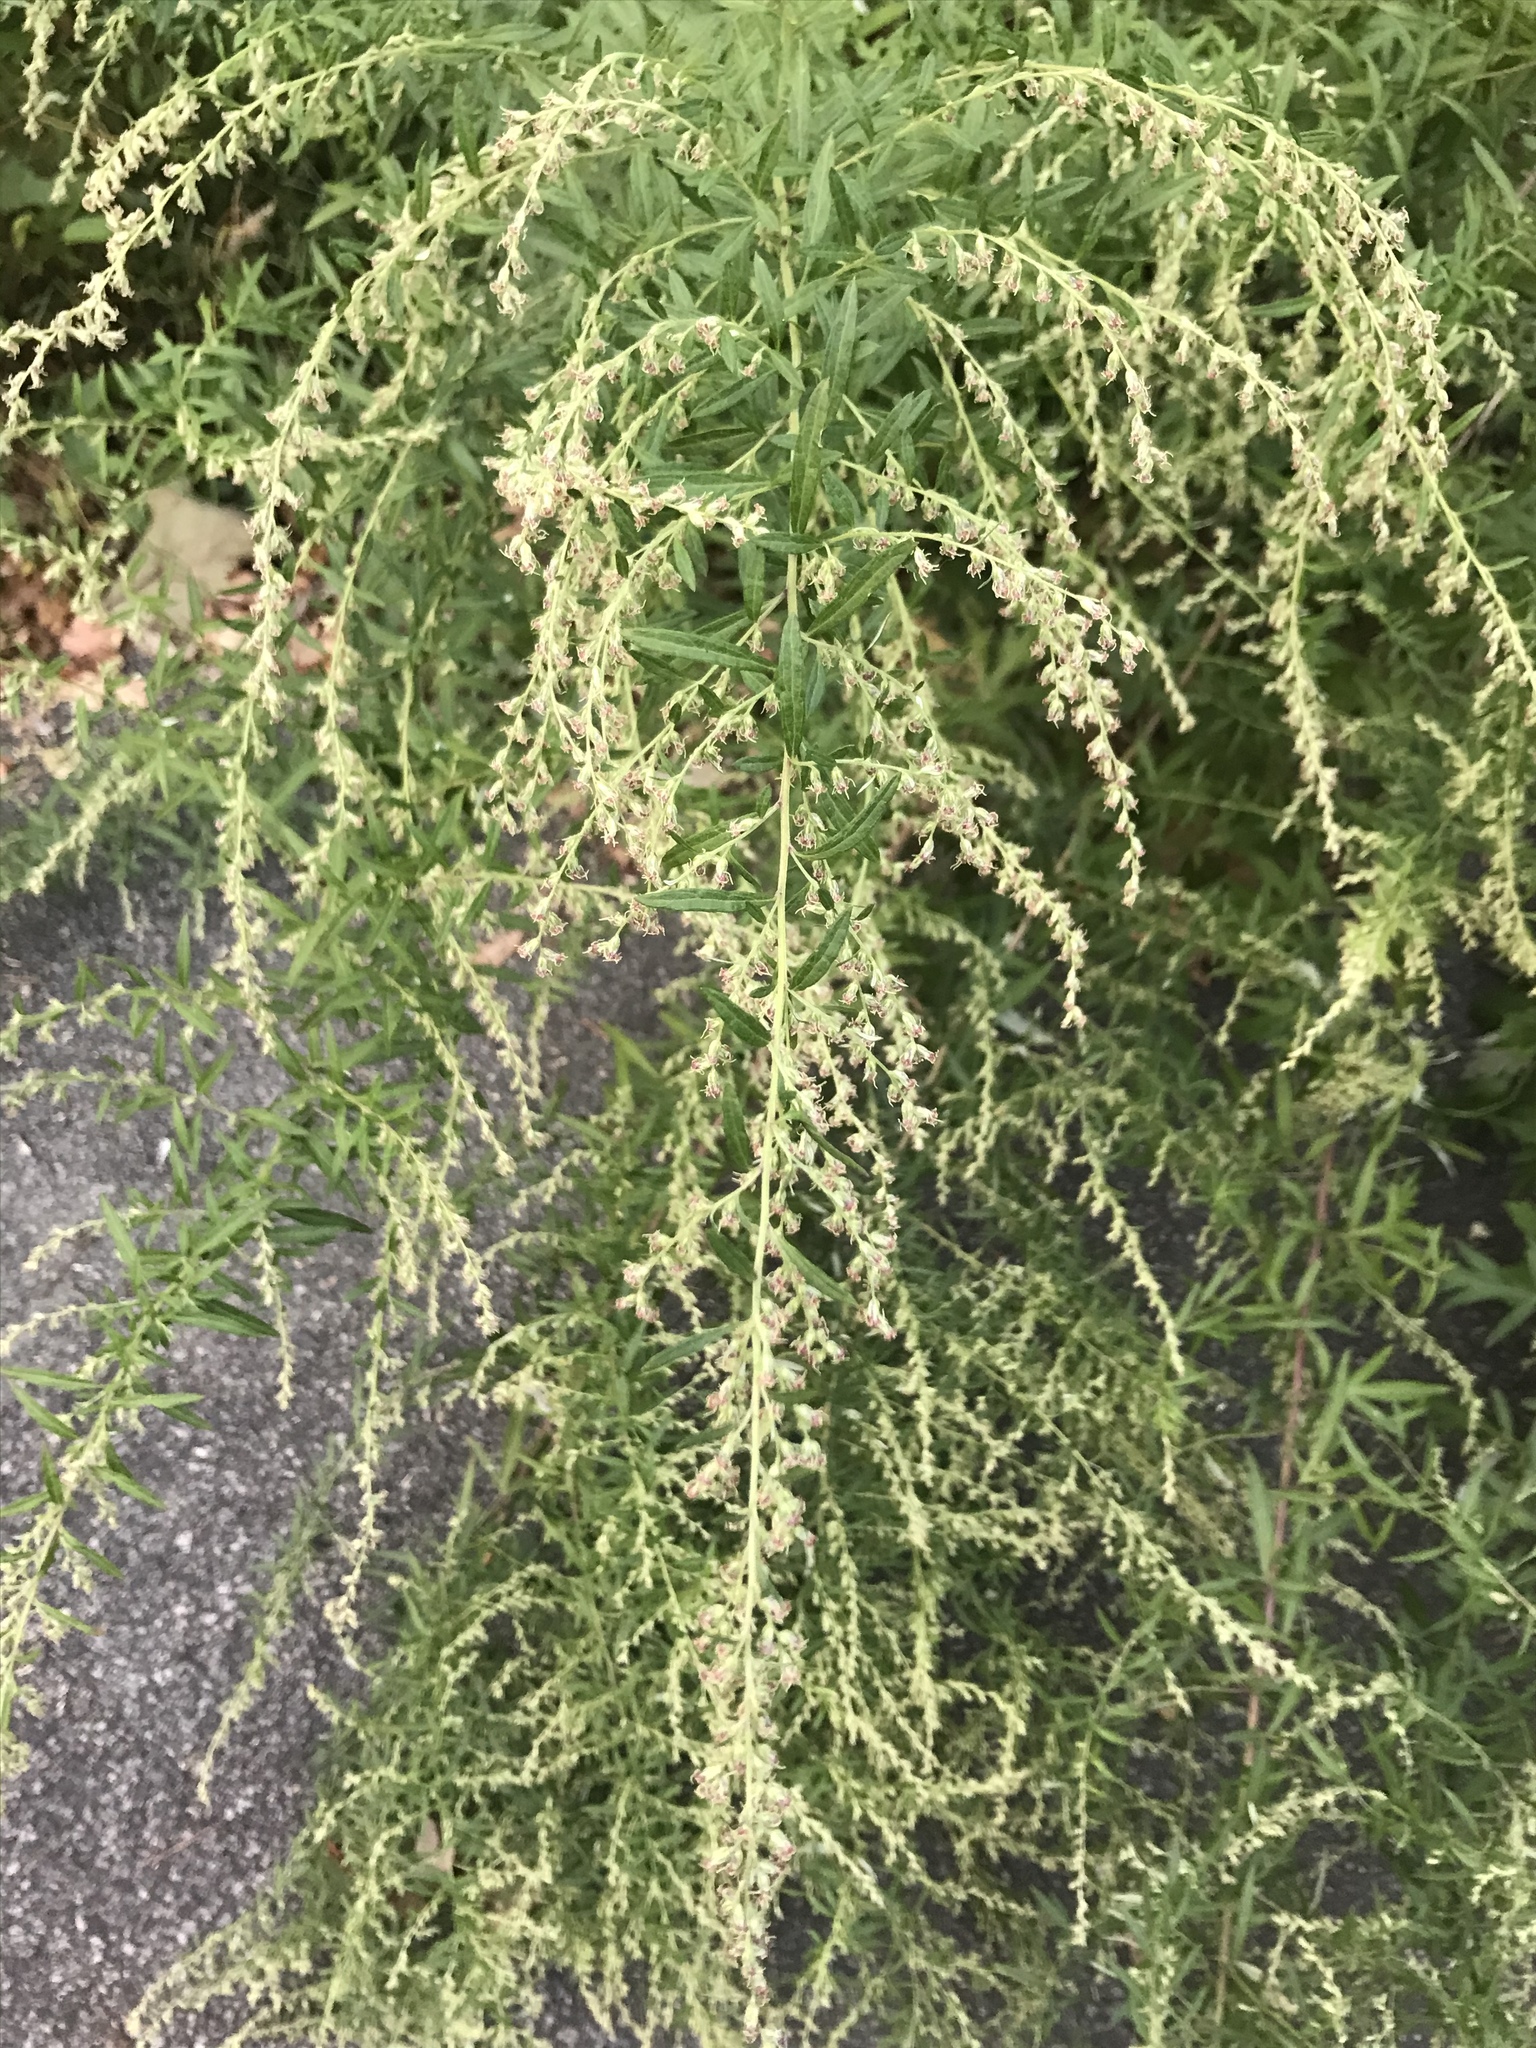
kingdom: Plantae
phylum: Tracheophyta
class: Magnoliopsida
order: Asterales
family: Asteraceae
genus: Artemisia
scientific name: Artemisia vulgaris
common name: Mugwort
